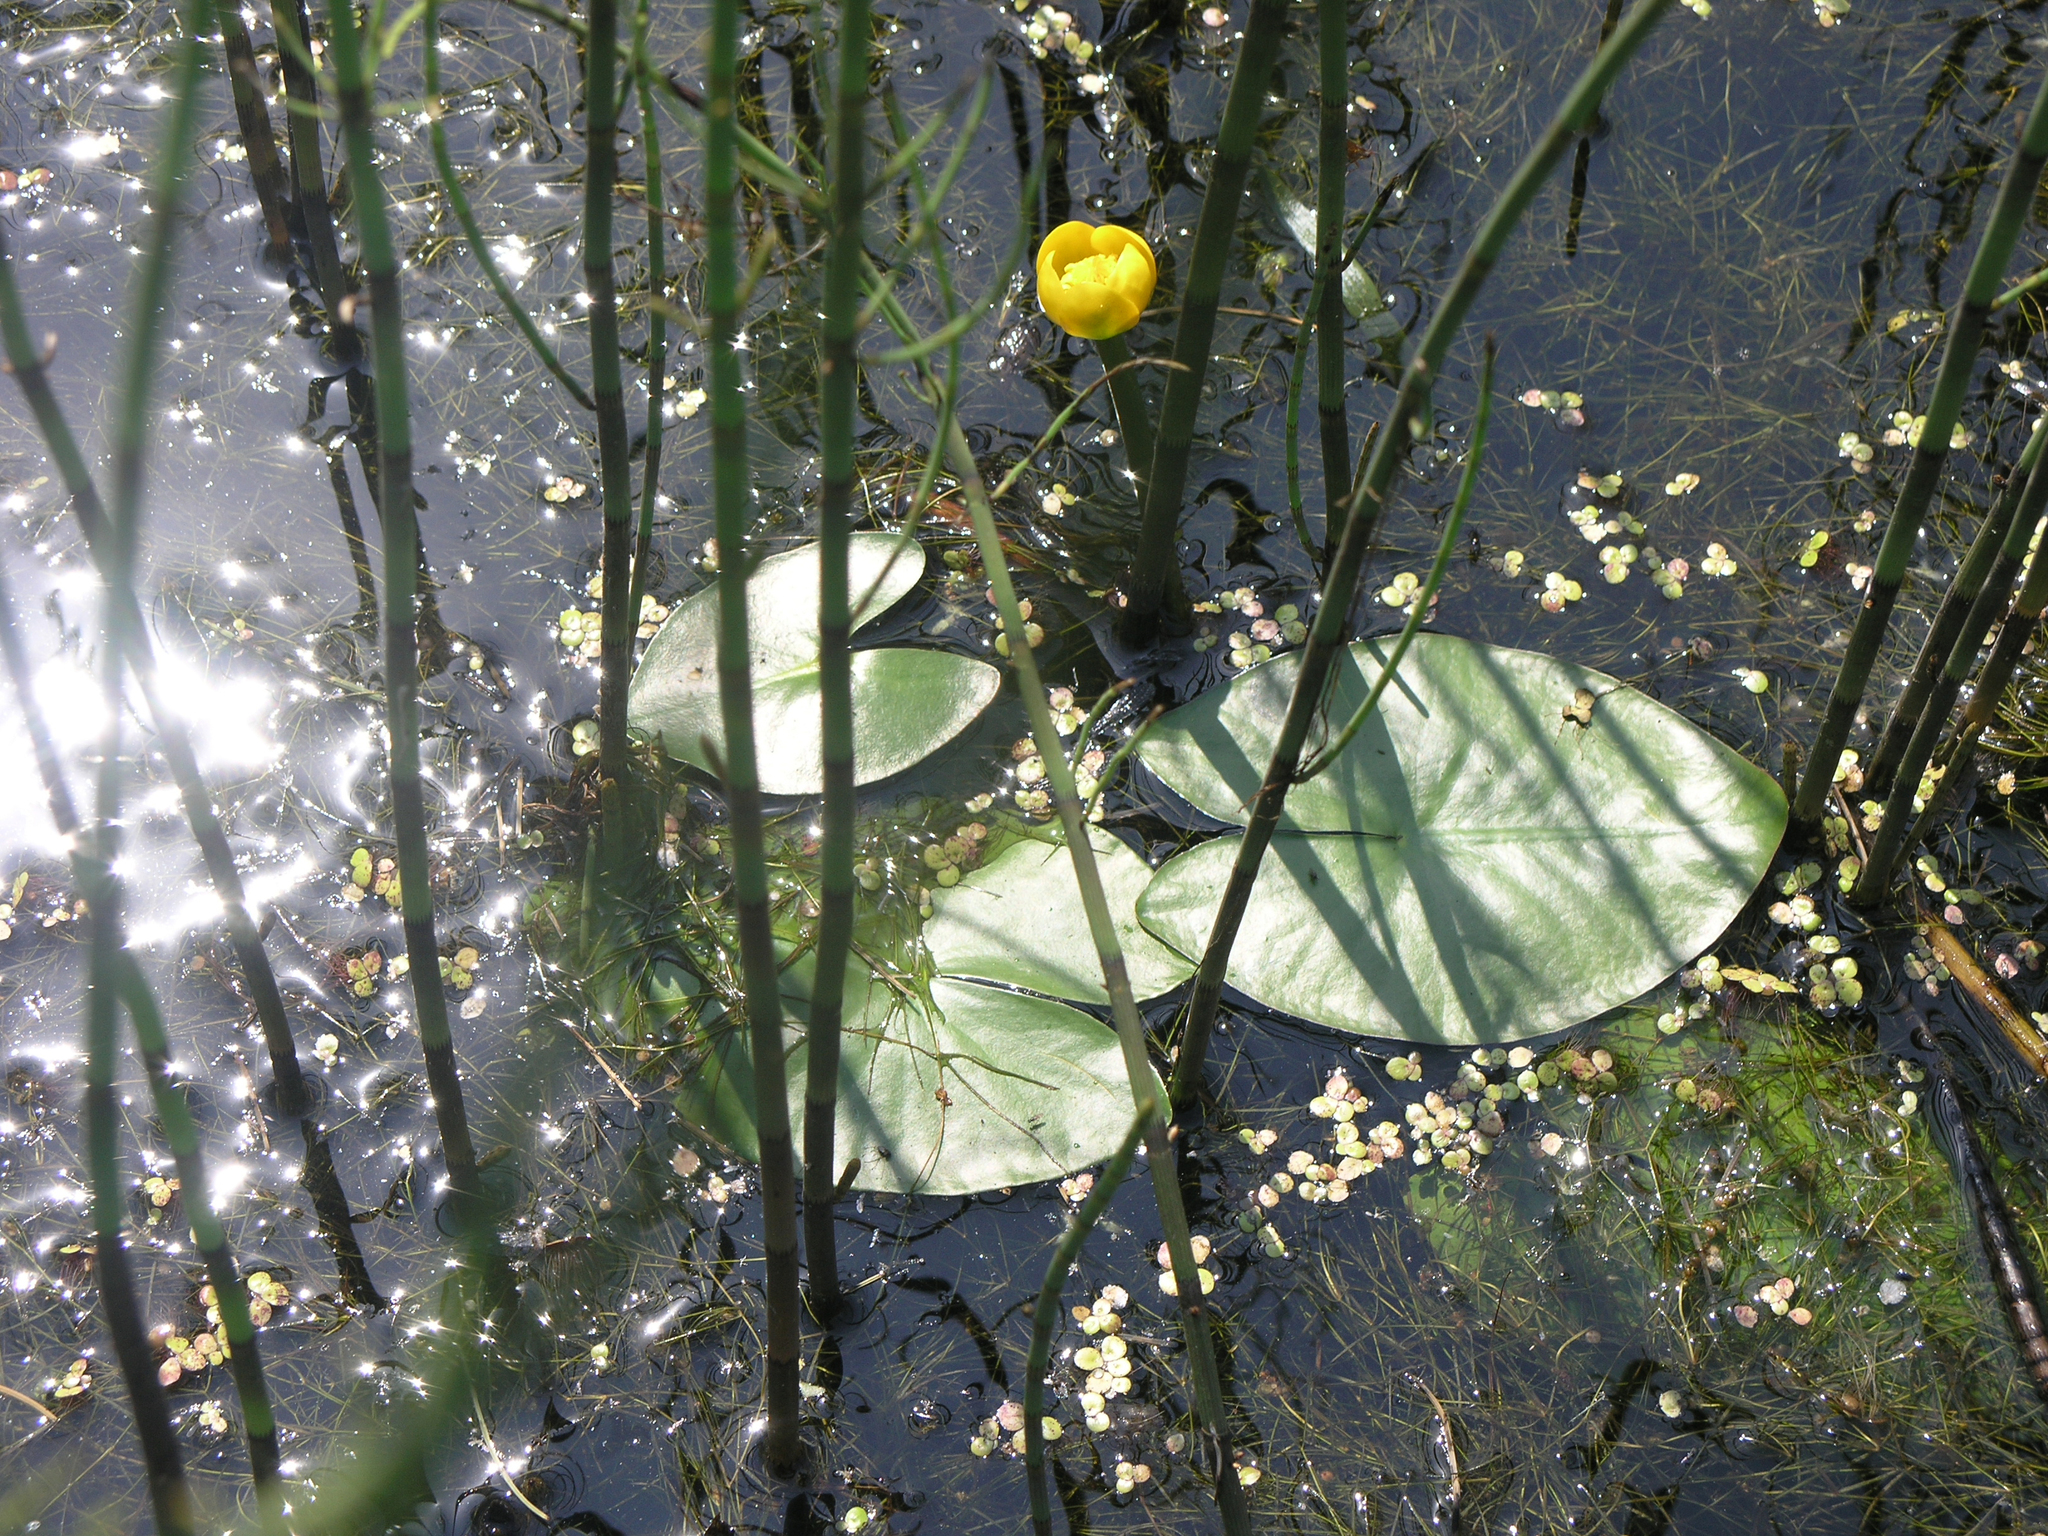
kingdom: Plantae
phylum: Tracheophyta
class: Magnoliopsida
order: Nymphaeales
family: Nymphaeaceae
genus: Nuphar
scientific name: Nuphar pumila
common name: Least water-lily
